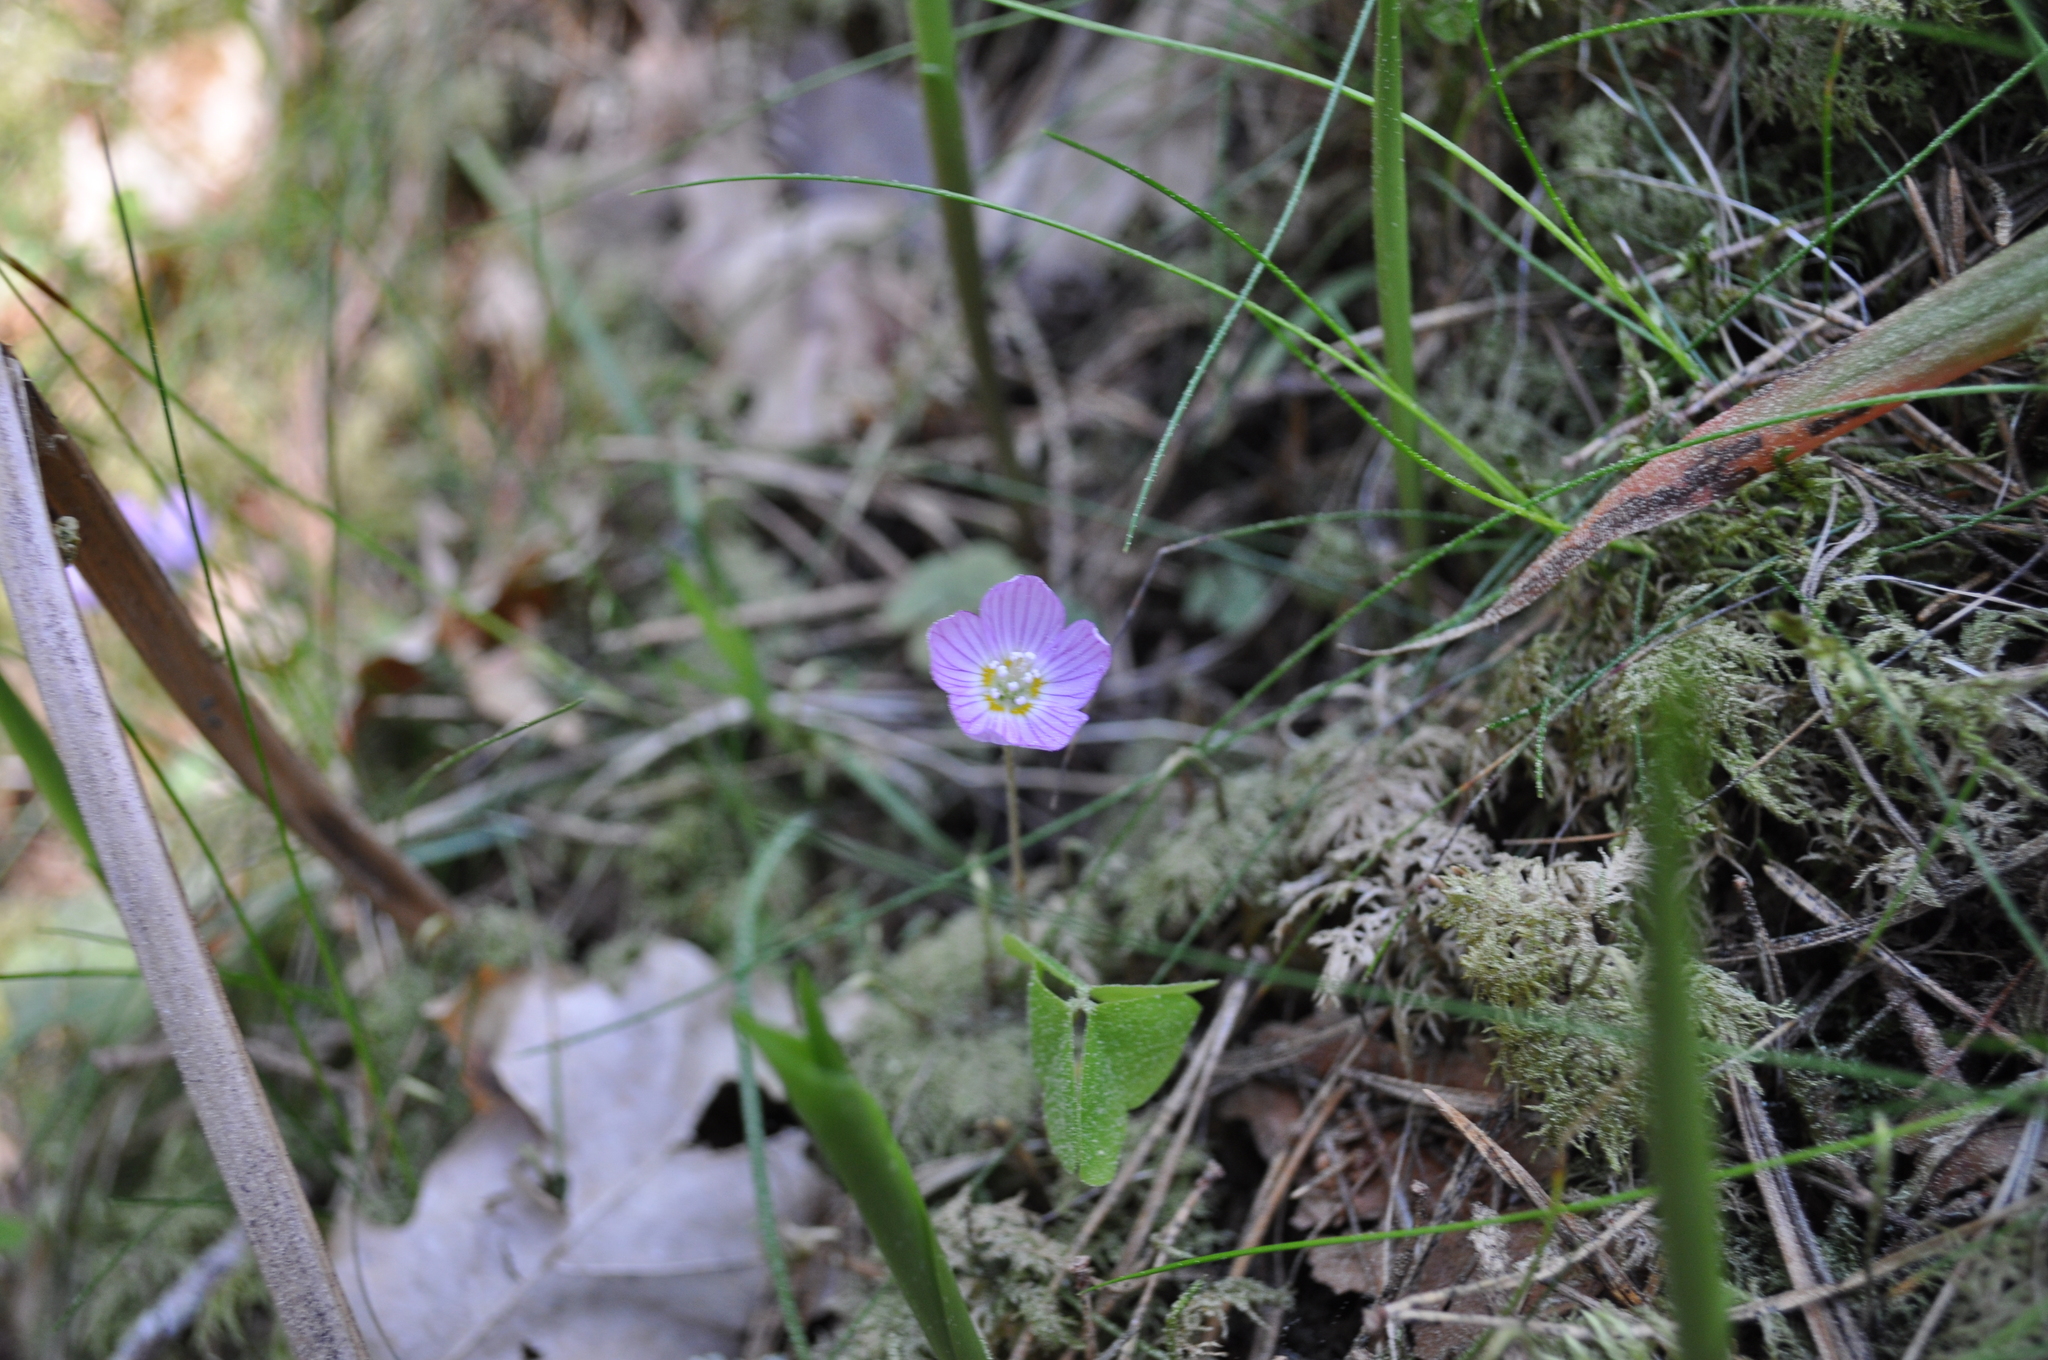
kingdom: Plantae
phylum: Tracheophyta
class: Magnoliopsida
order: Oxalidales
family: Oxalidaceae
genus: Oxalis
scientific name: Oxalis acetosella
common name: Wood-sorrel
